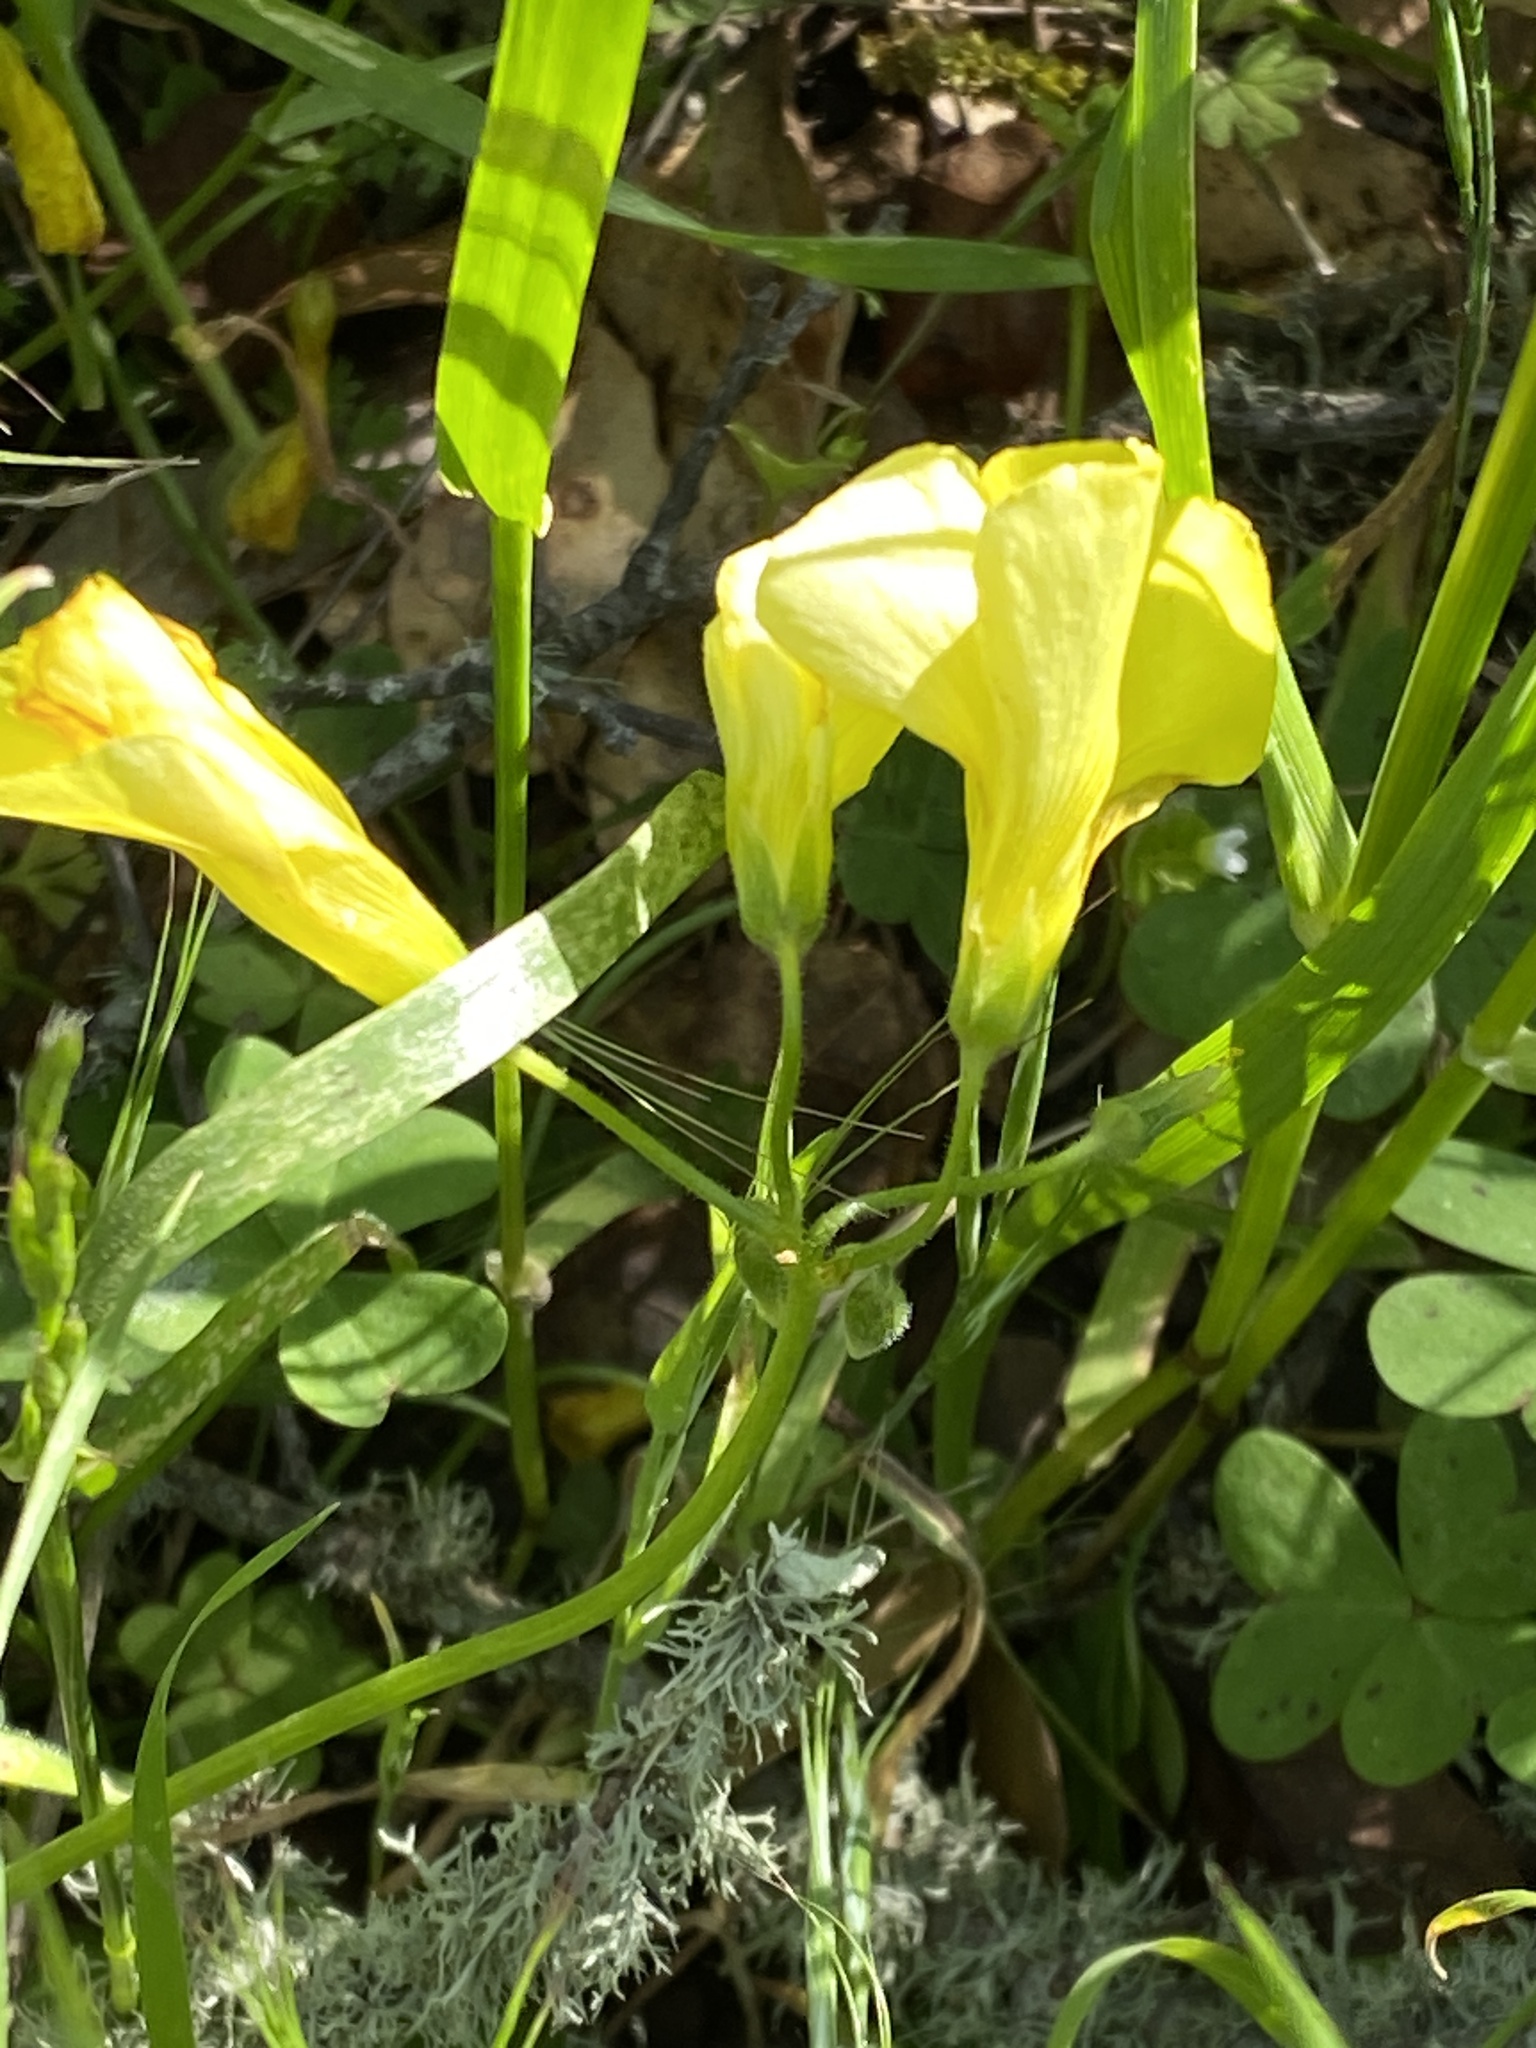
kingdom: Plantae
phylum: Tracheophyta
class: Magnoliopsida
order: Oxalidales
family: Oxalidaceae
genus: Oxalis
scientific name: Oxalis pes-caprae
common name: Bermuda-buttercup
